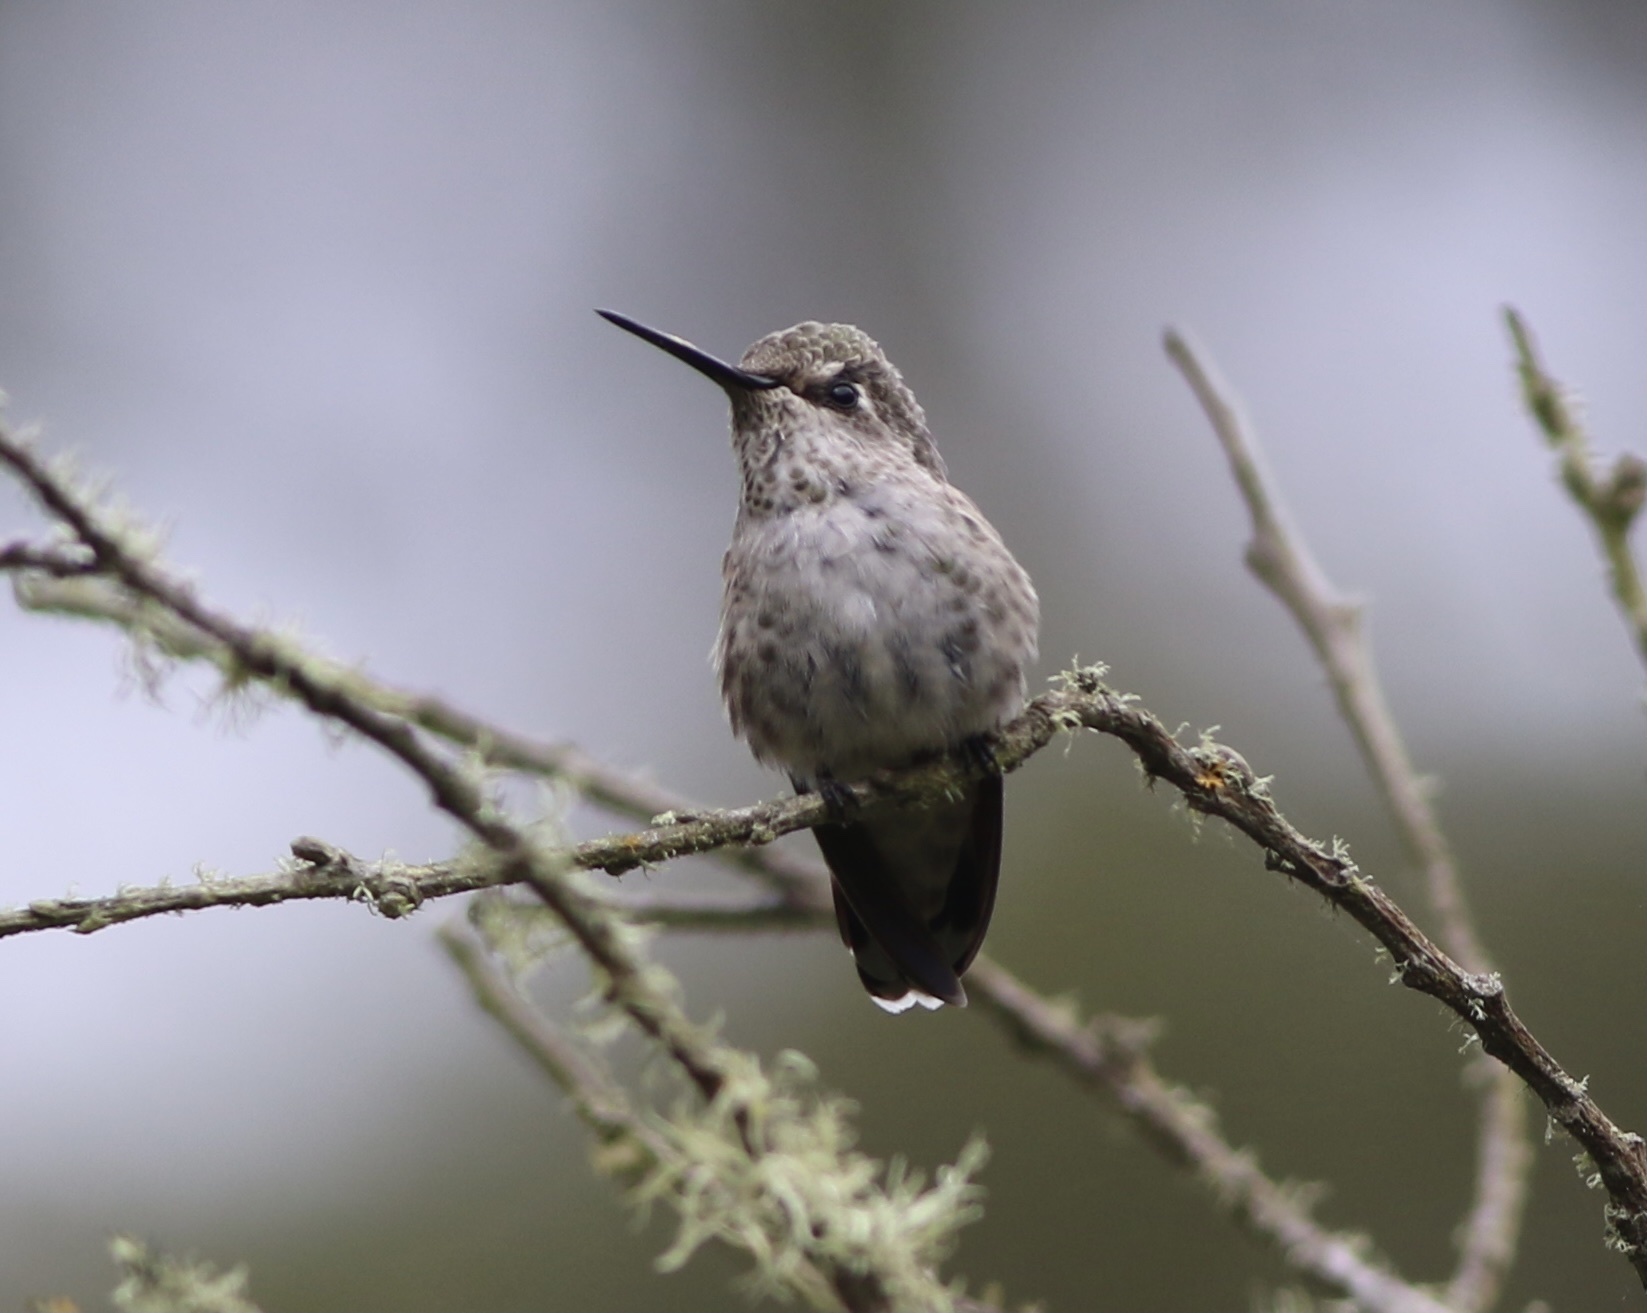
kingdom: Animalia
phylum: Chordata
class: Aves
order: Apodiformes
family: Trochilidae
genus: Calypte
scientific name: Calypte anna
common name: Anna's hummingbird
